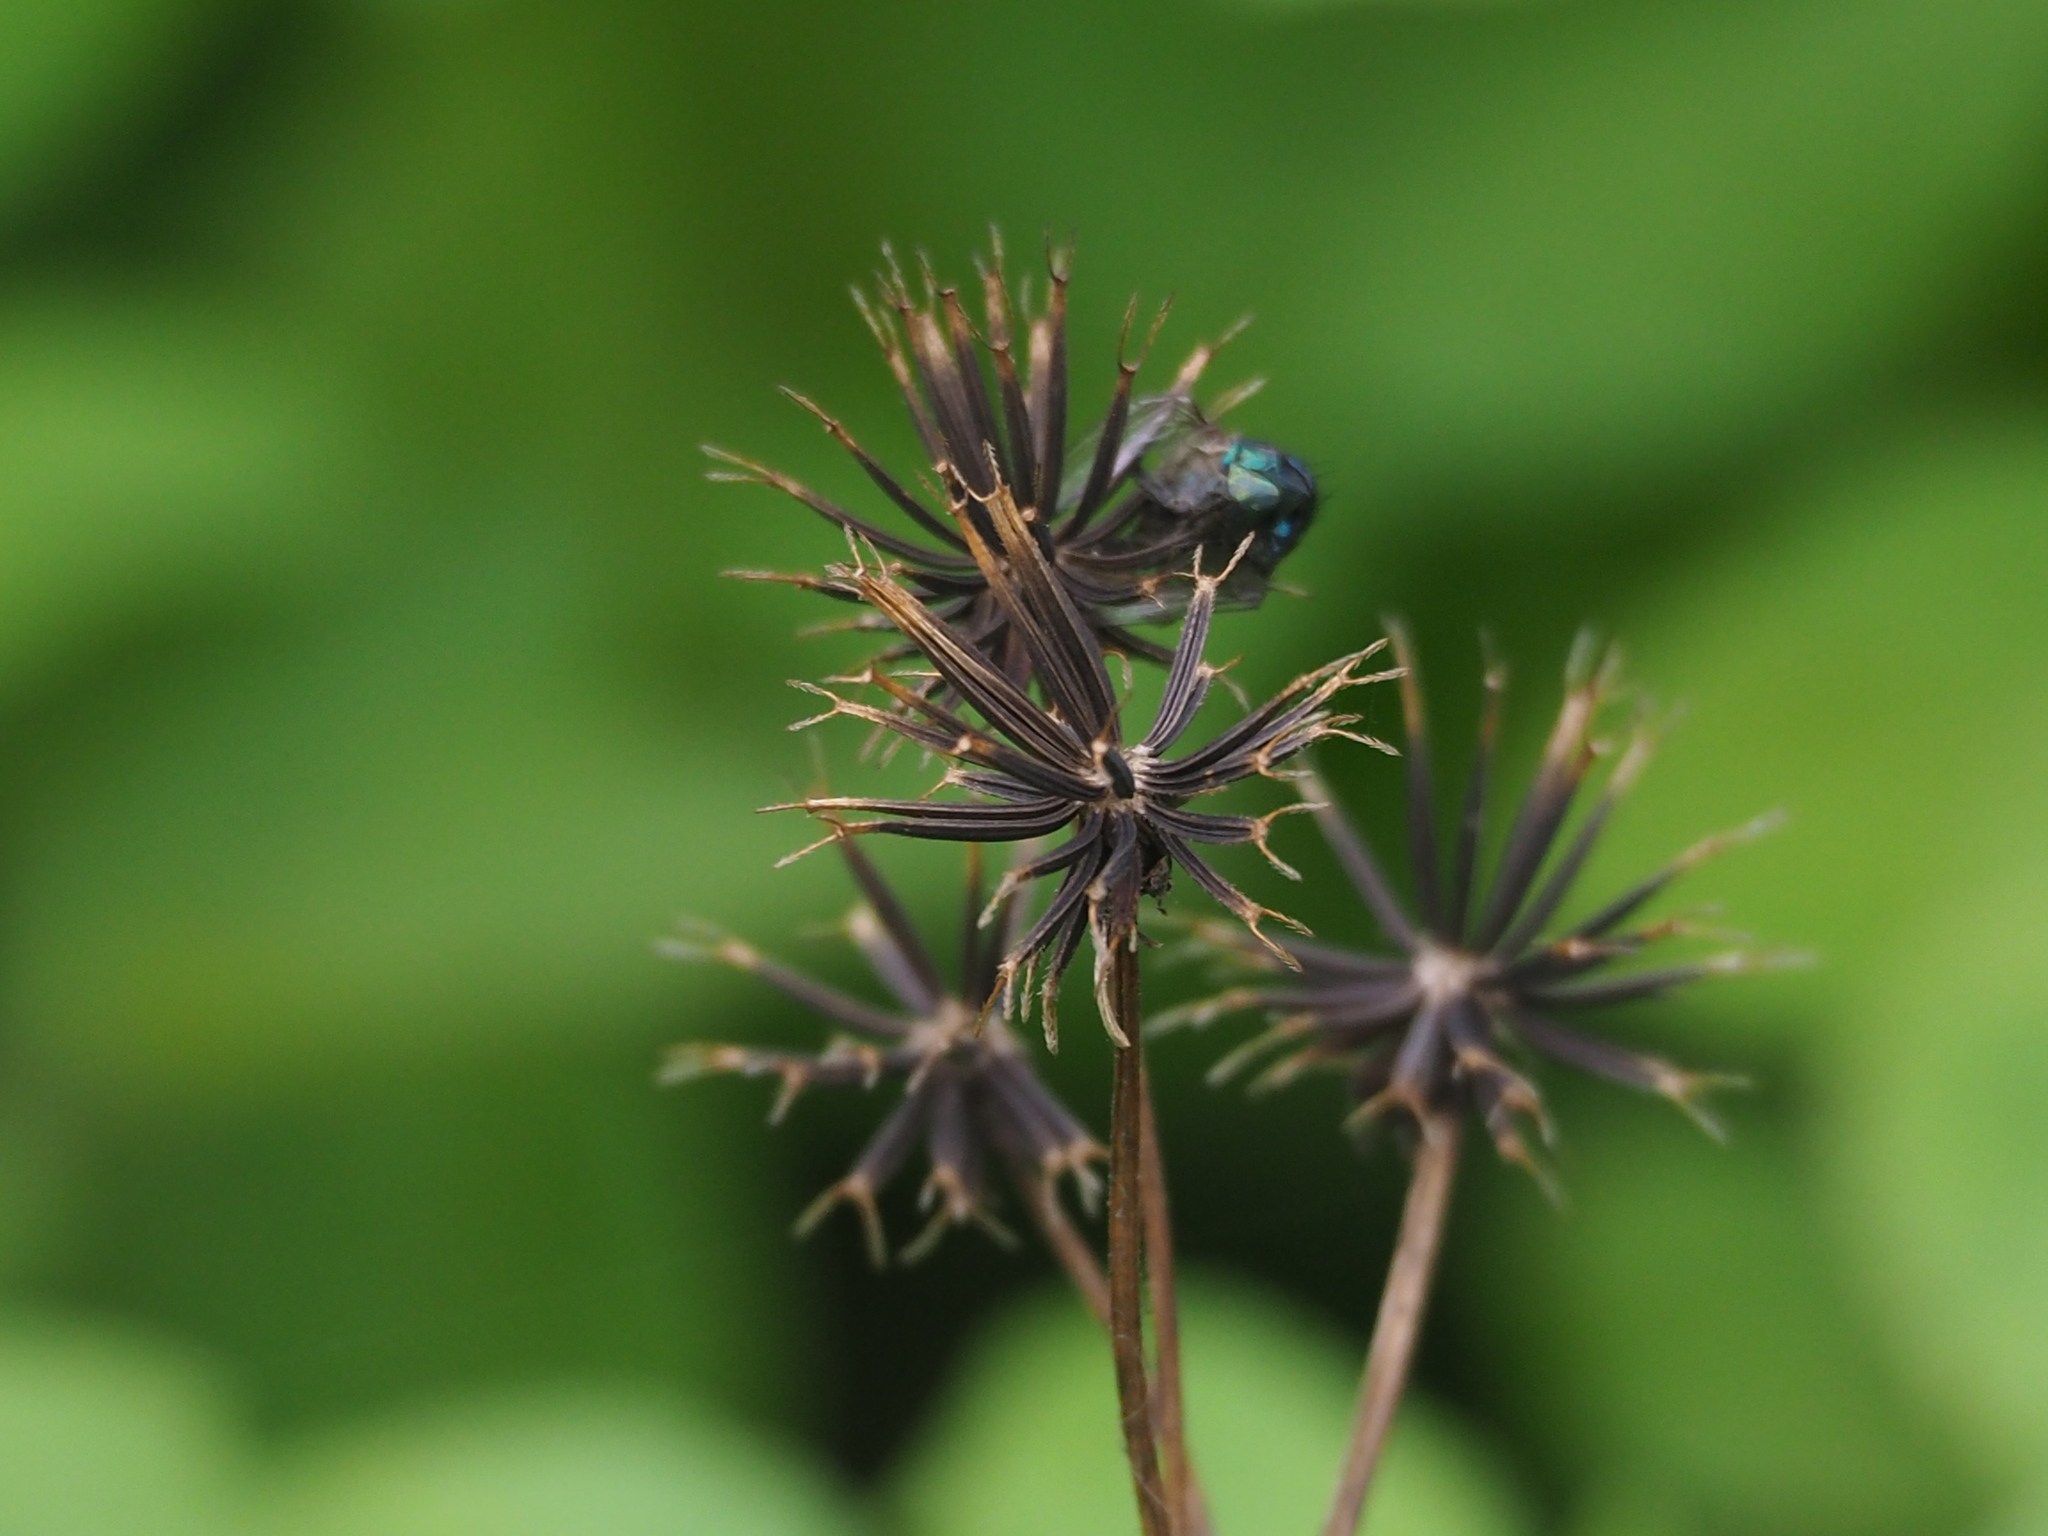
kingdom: Plantae
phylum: Tracheophyta
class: Magnoliopsida
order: Asterales
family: Asteraceae
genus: Bidens
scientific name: Bidens alba
